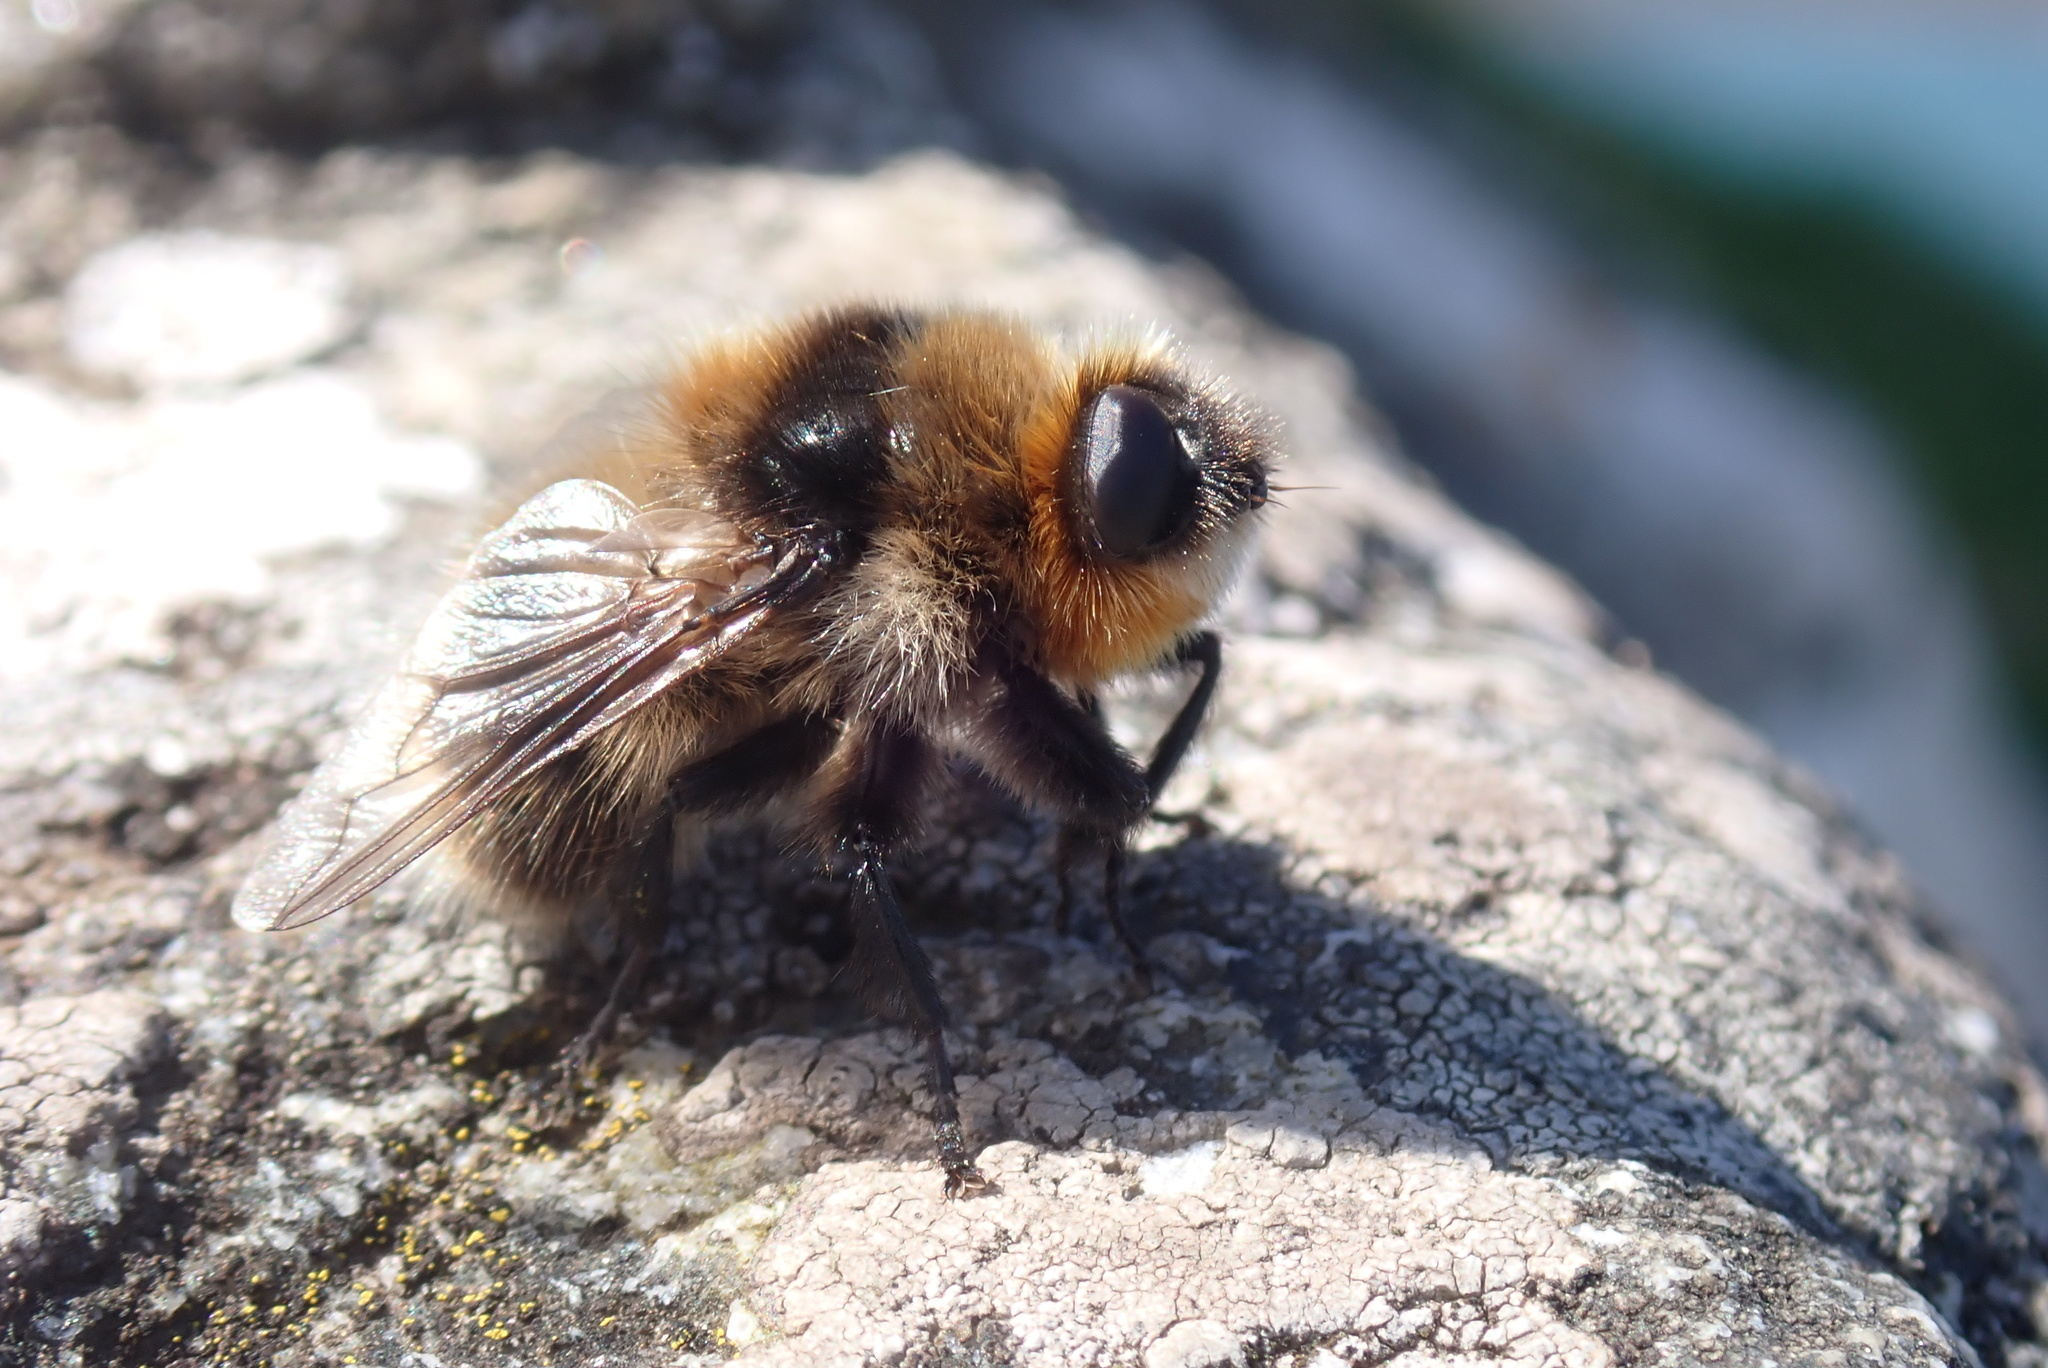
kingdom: Animalia
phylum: Arthropoda
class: Insecta
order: Diptera
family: Oestridae
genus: Cephenemyia
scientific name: Cephenemyia auribarbis
